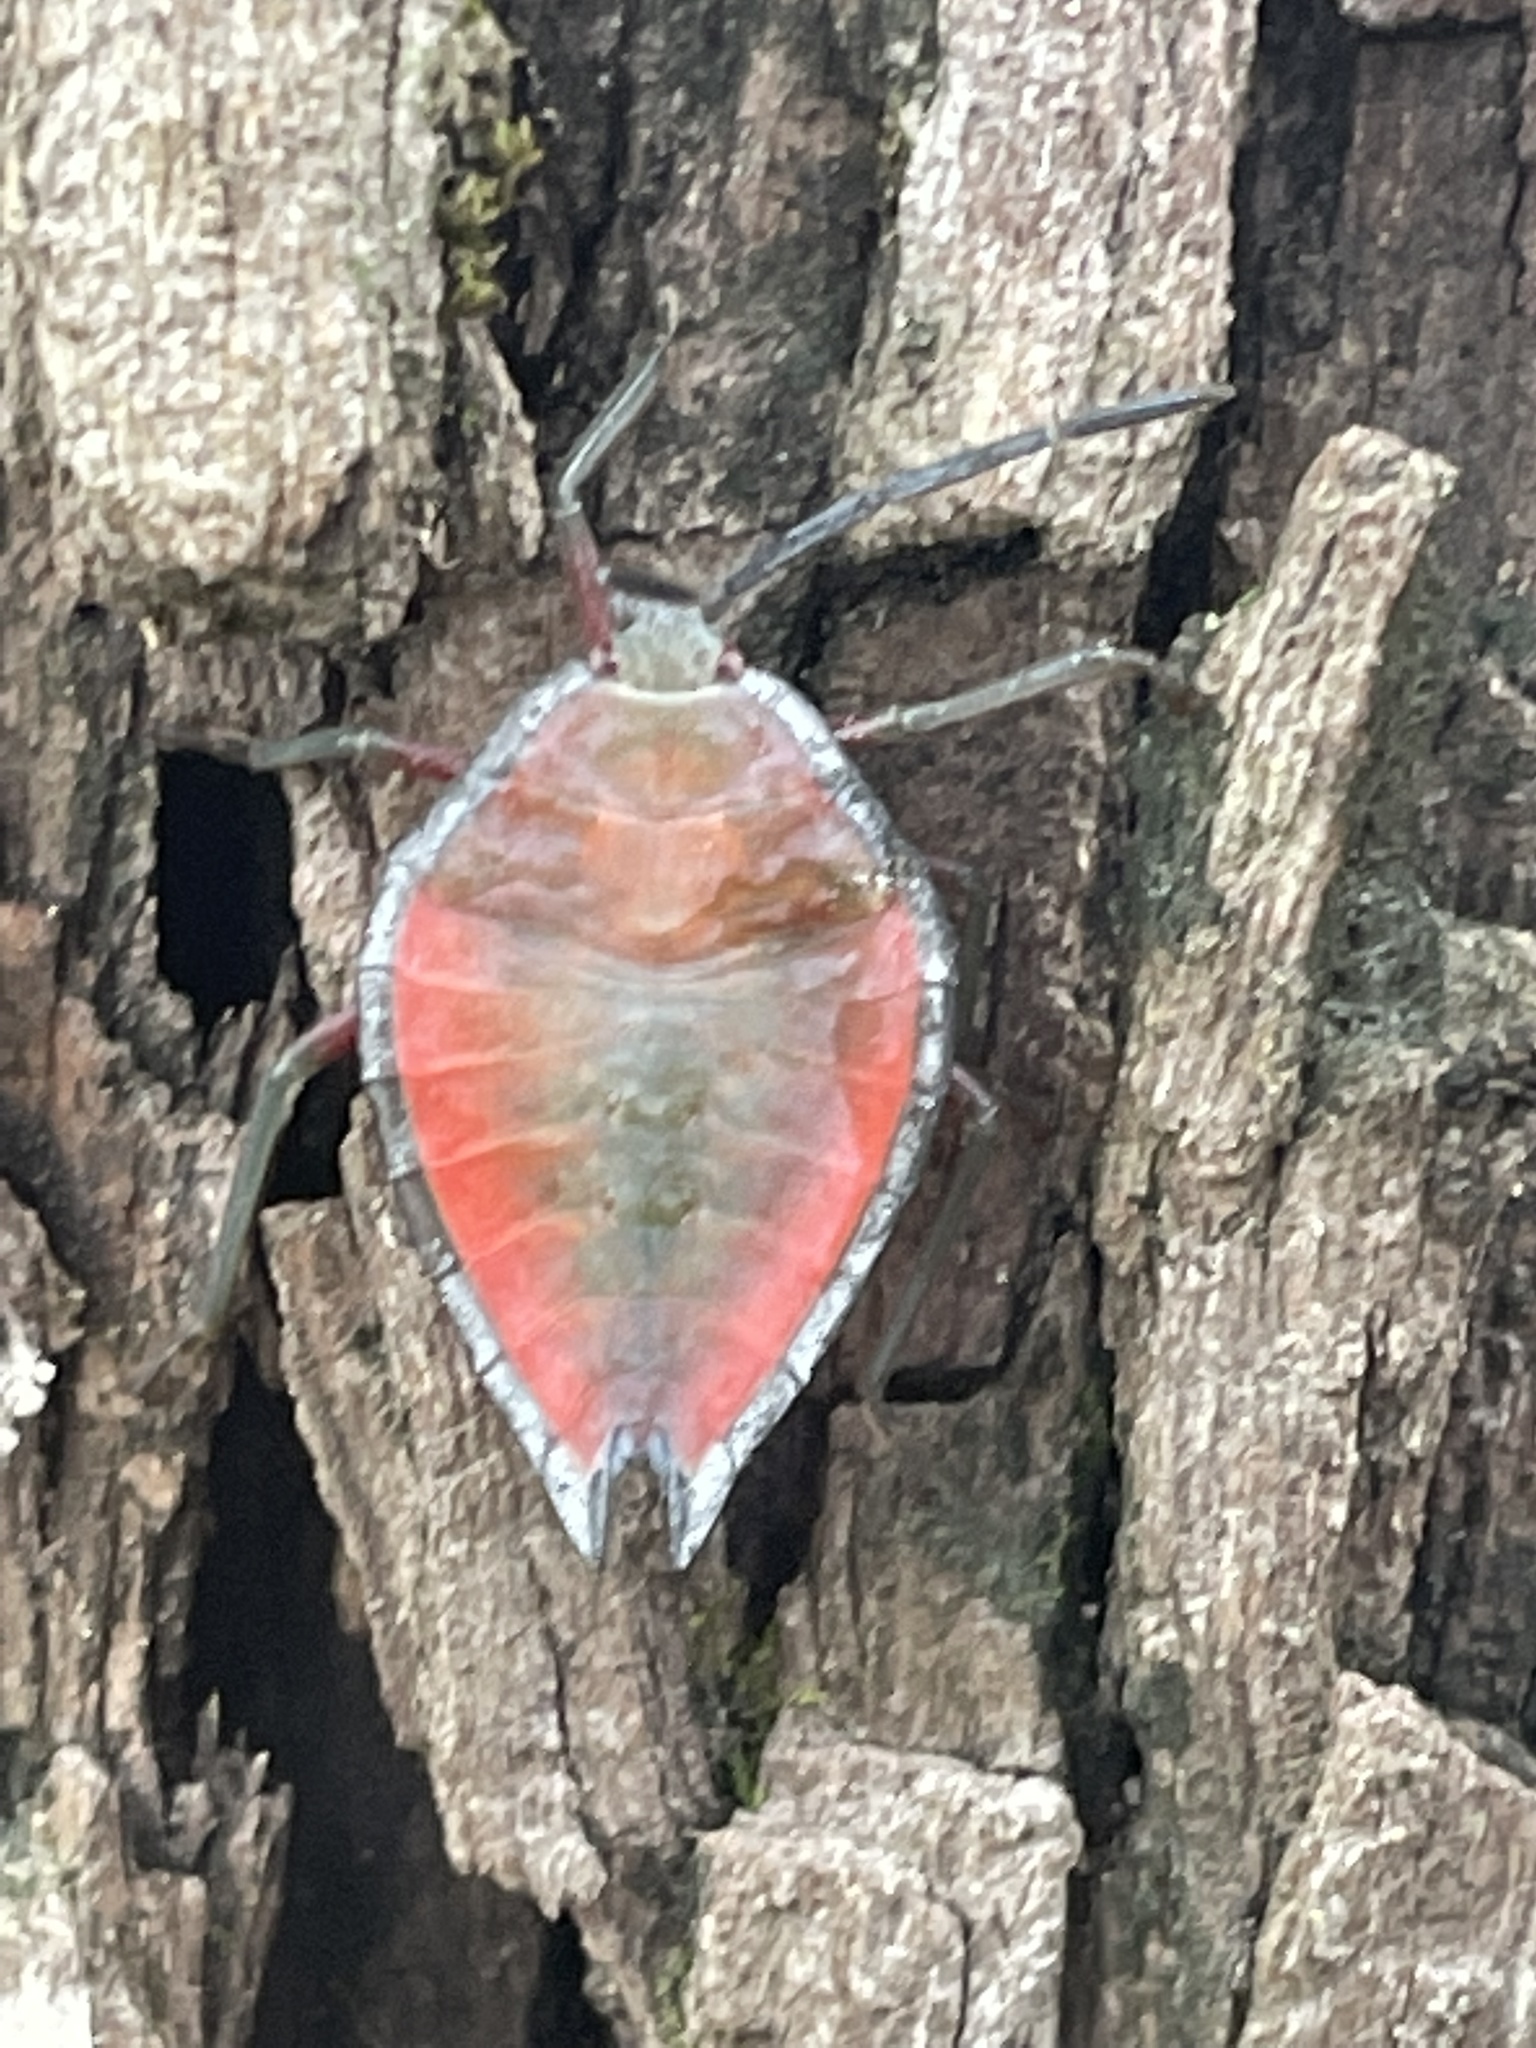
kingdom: Animalia
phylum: Arthropoda
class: Insecta
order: Hemiptera
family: Tessaratomidae
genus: Lyramorpha
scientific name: Lyramorpha rosea
